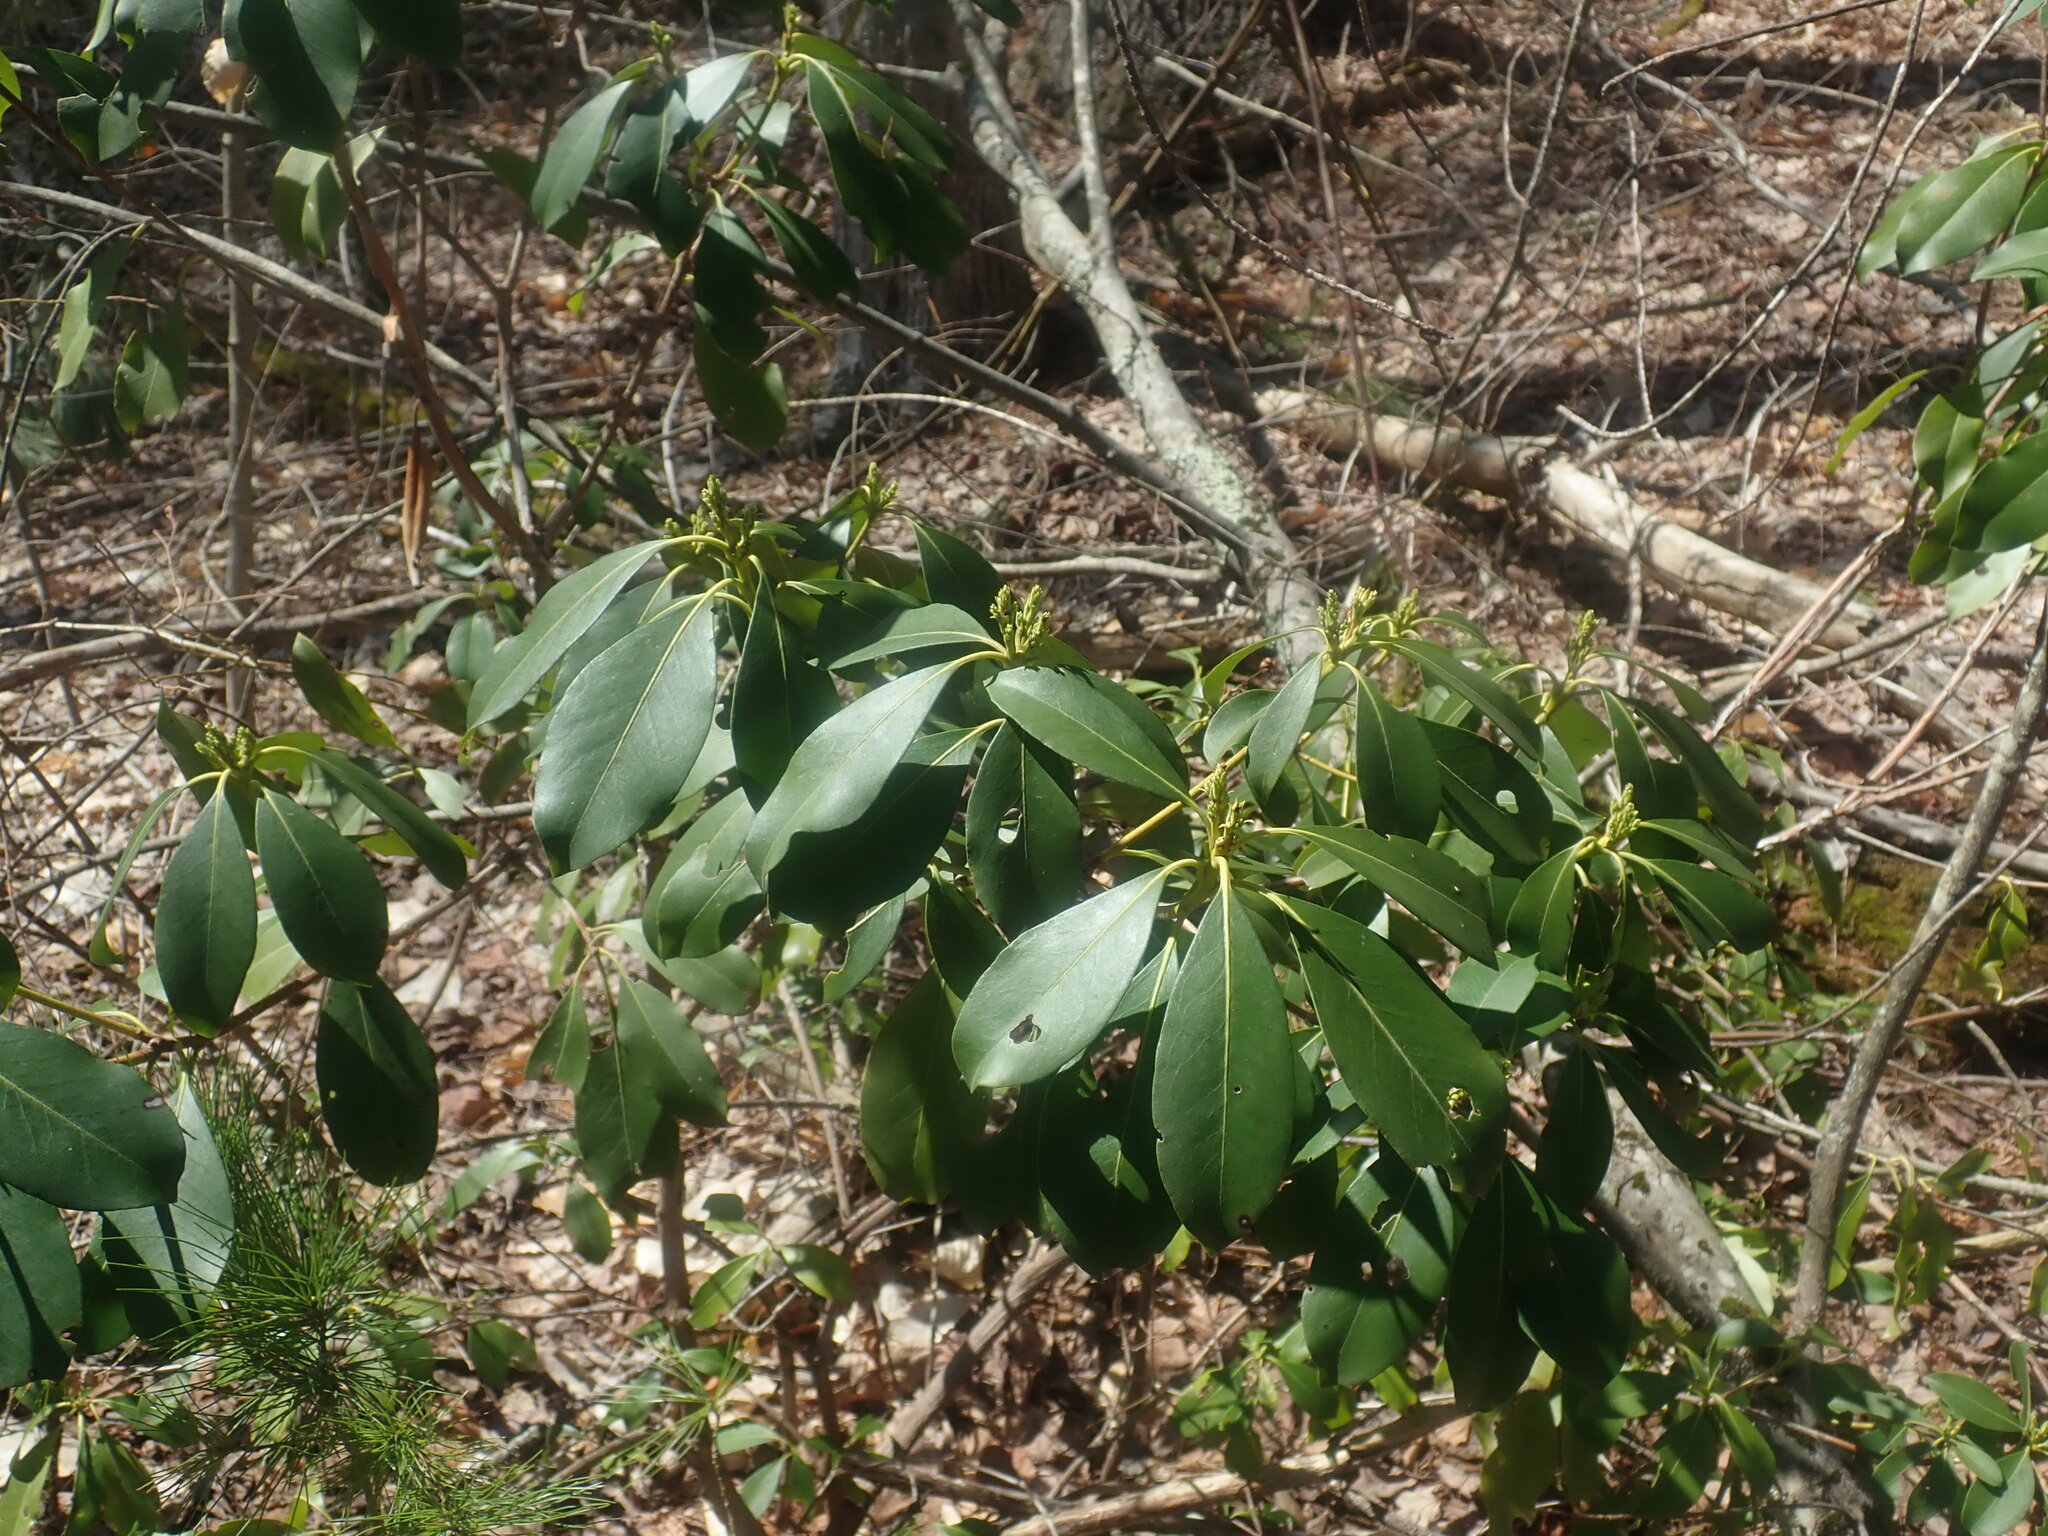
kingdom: Plantae
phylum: Tracheophyta
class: Magnoliopsida
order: Ericales
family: Ericaceae
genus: Kalmia
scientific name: Kalmia latifolia
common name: Mountain-laurel
